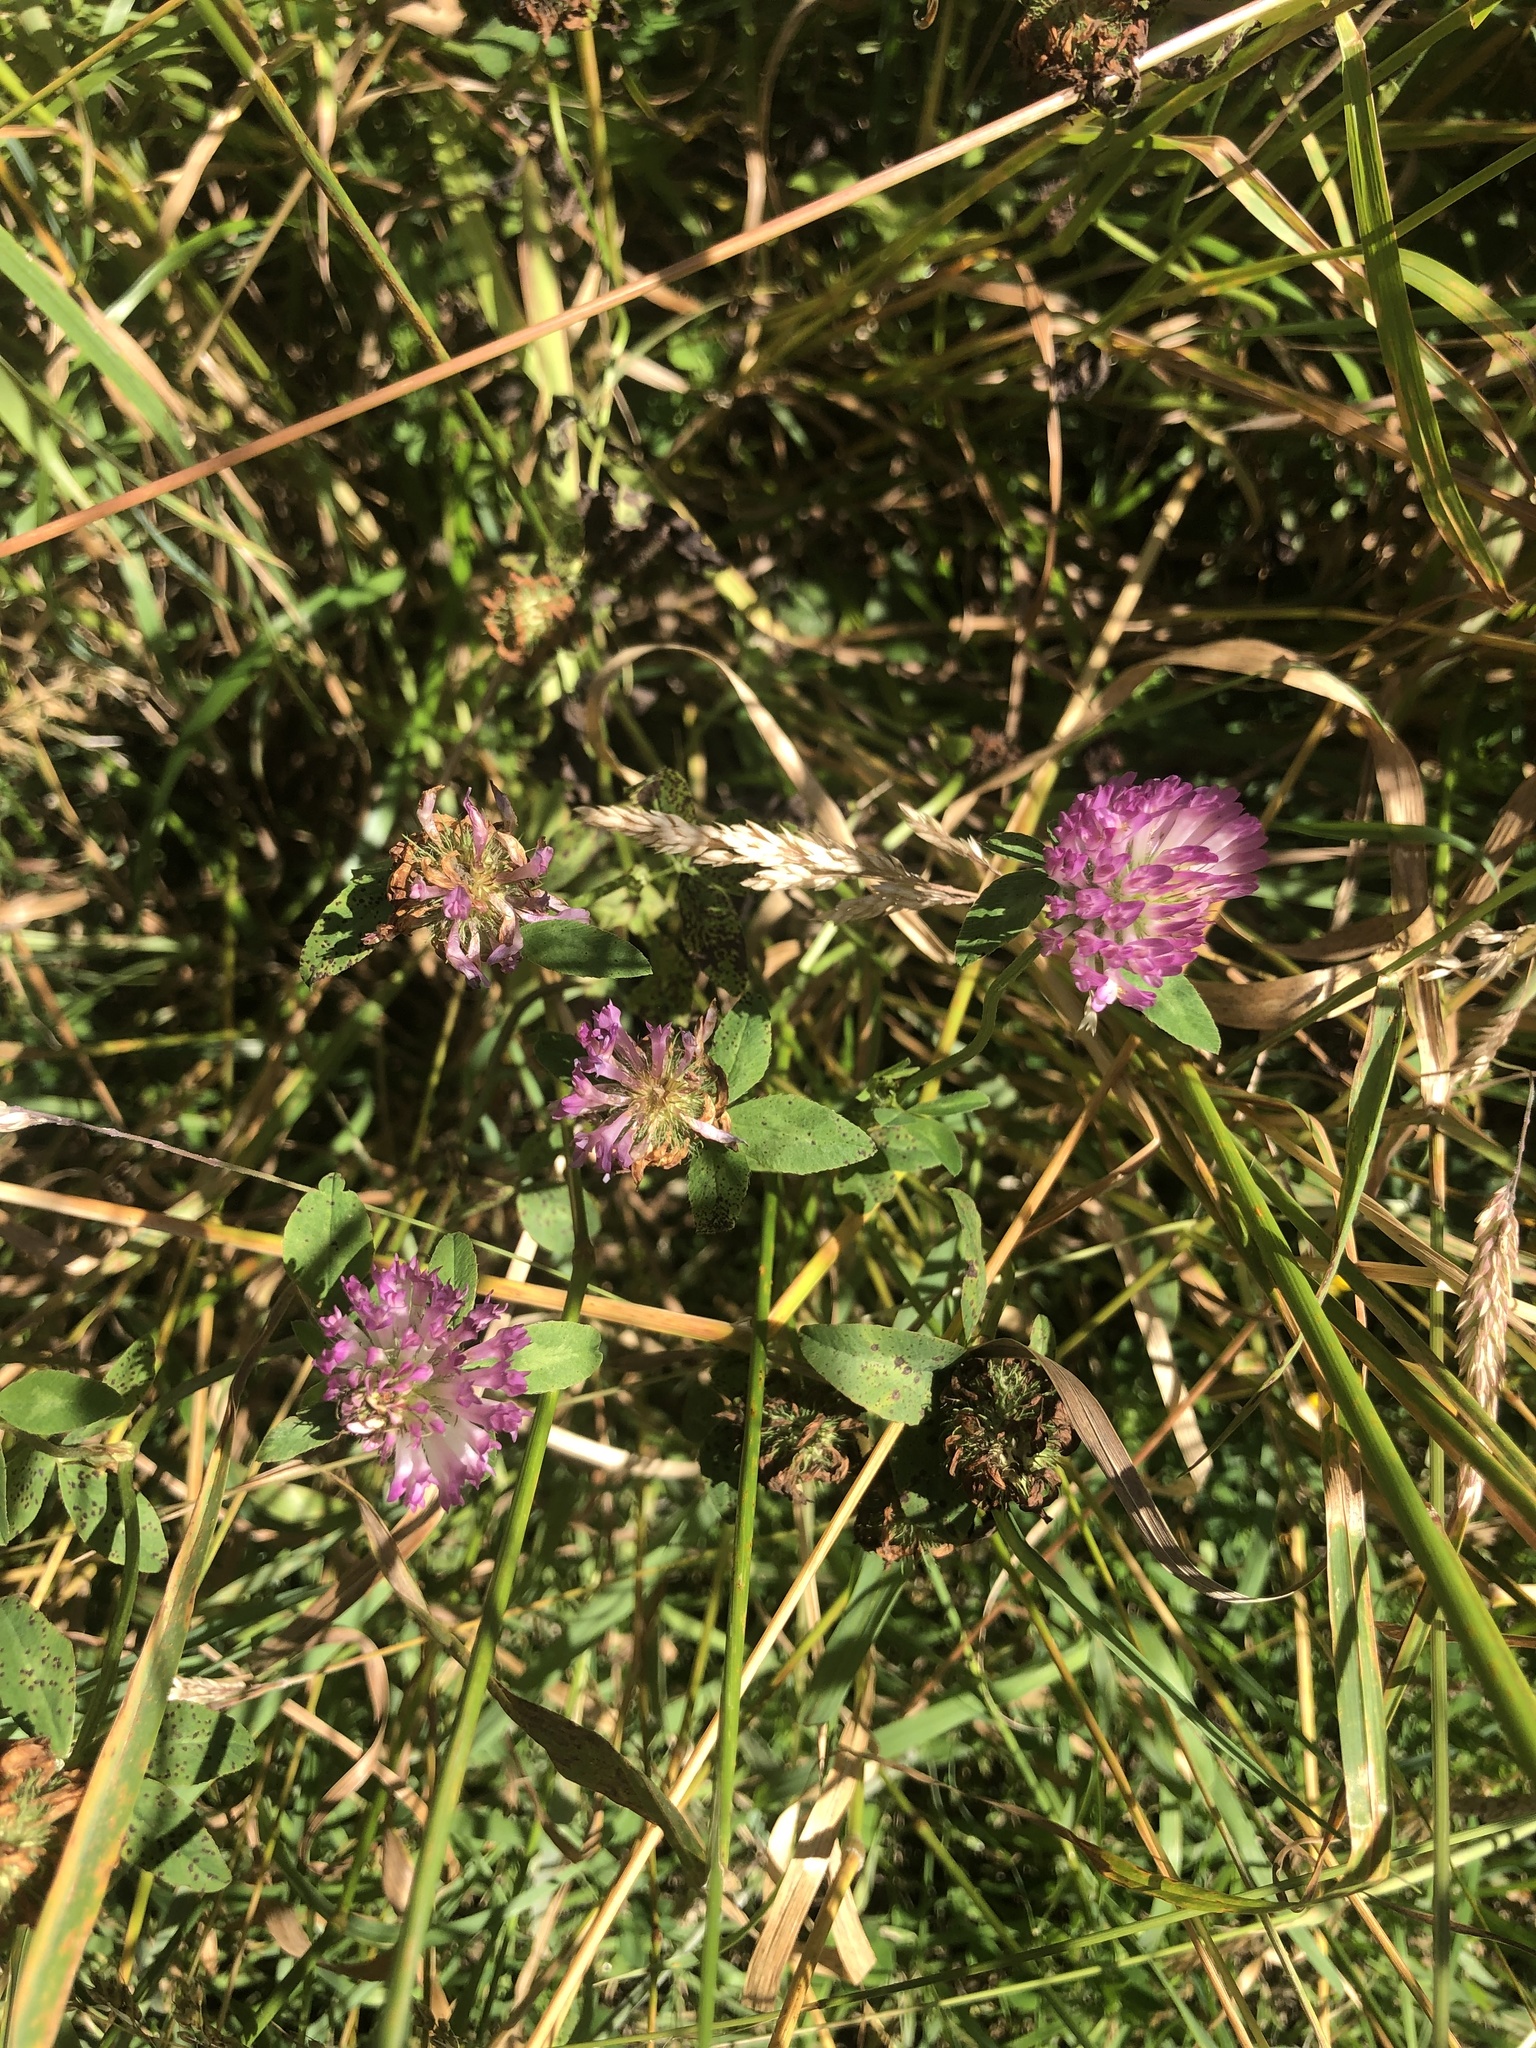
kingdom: Plantae
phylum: Tracheophyta
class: Magnoliopsida
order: Fabales
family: Fabaceae
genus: Trifolium
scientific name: Trifolium pratense
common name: Red clover
